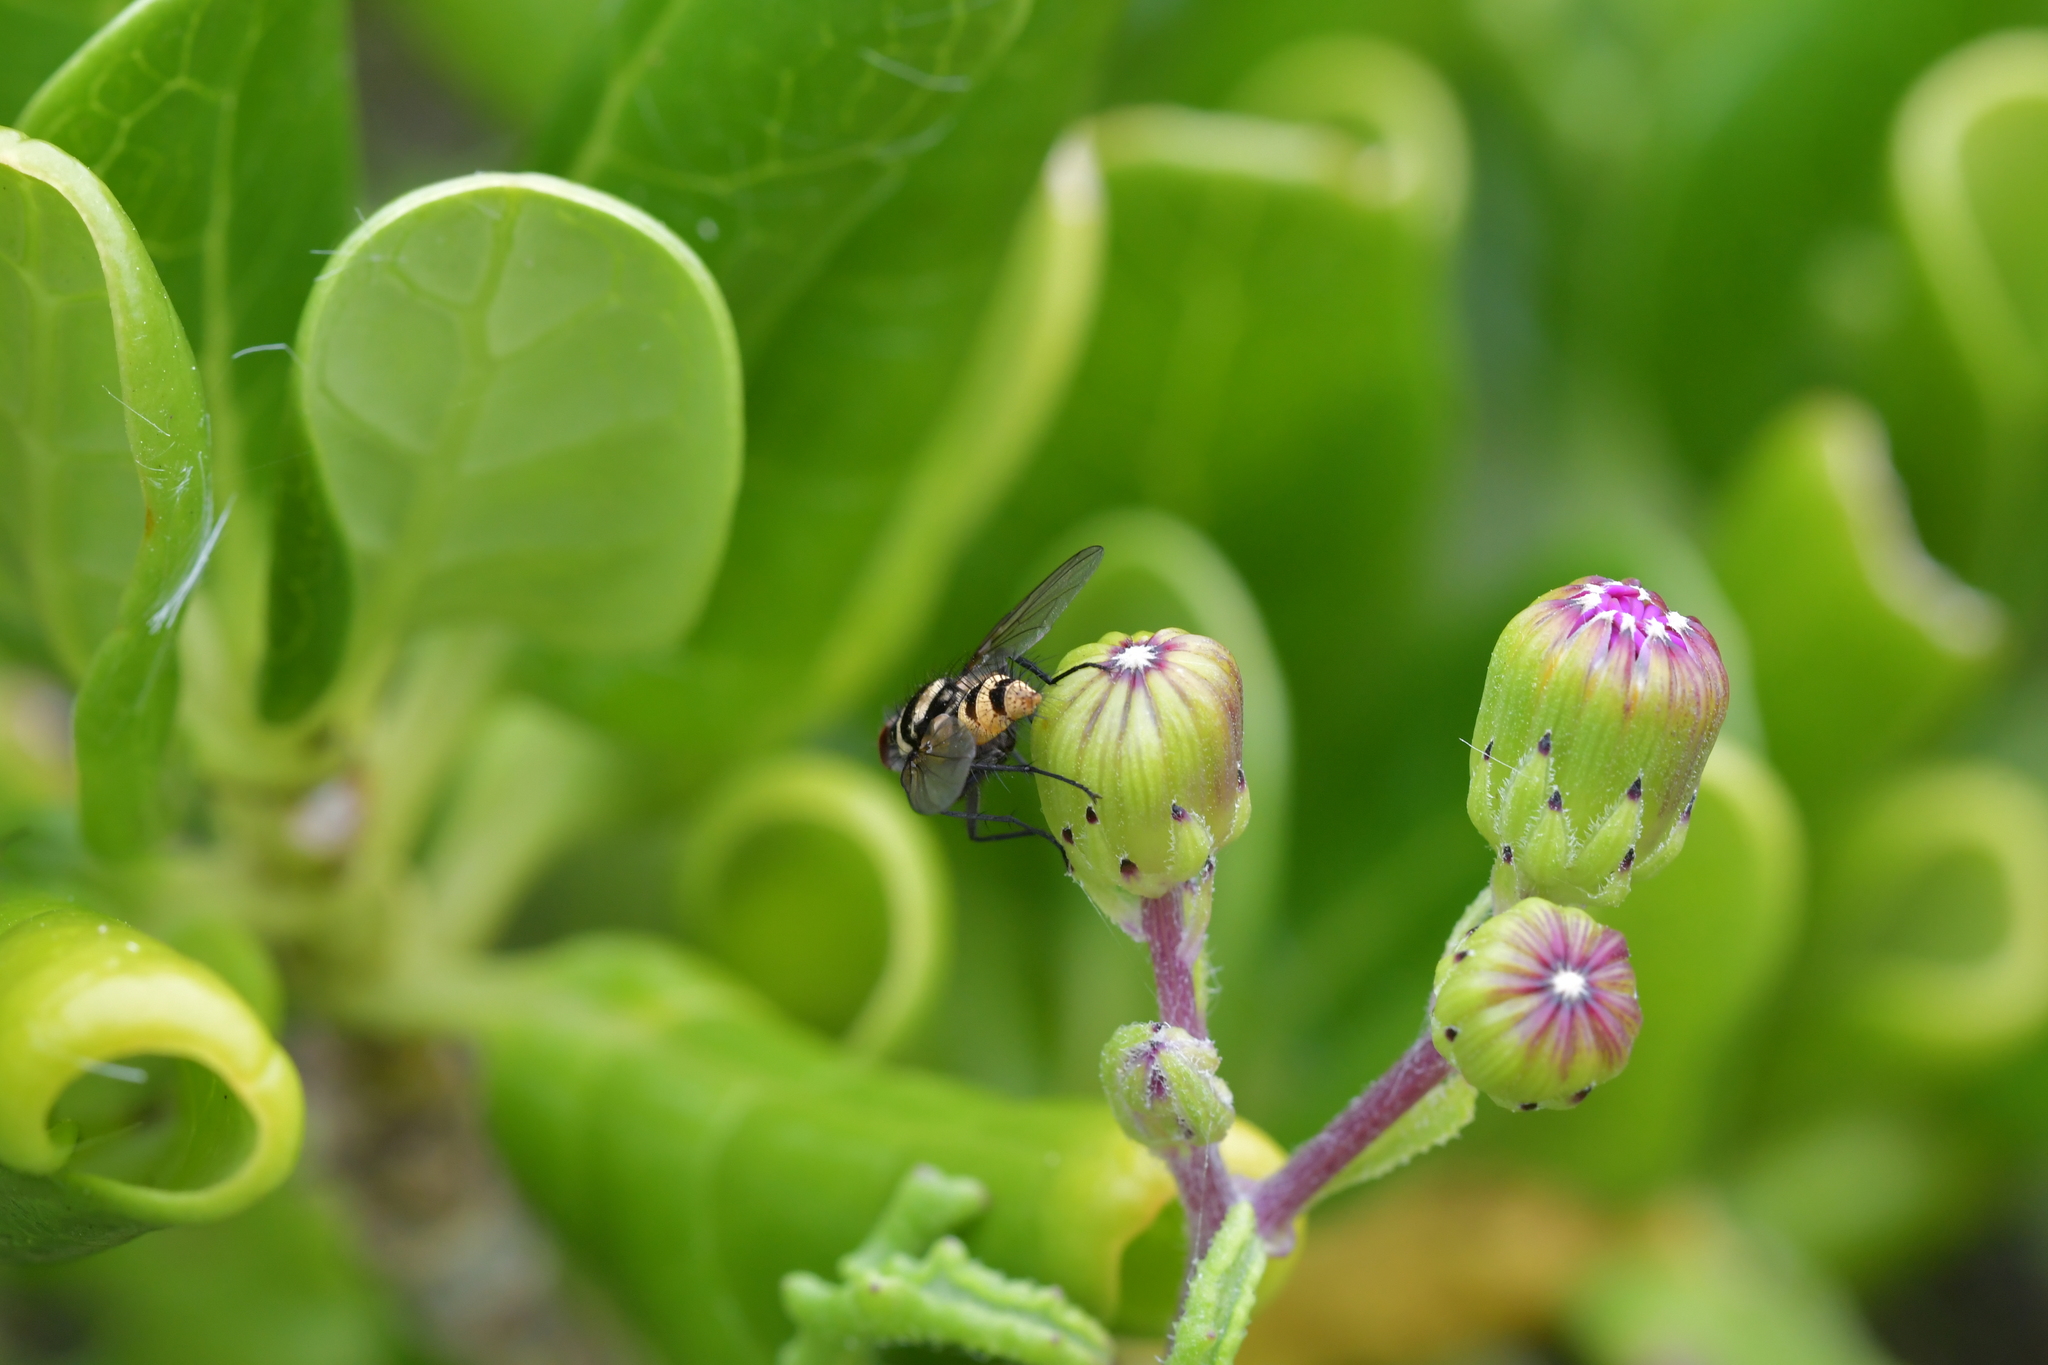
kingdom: Animalia
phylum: Arthropoda
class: Insecta
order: Diptera
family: Tachinidae
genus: Trigonospila
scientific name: Trigonospila brevifacies
